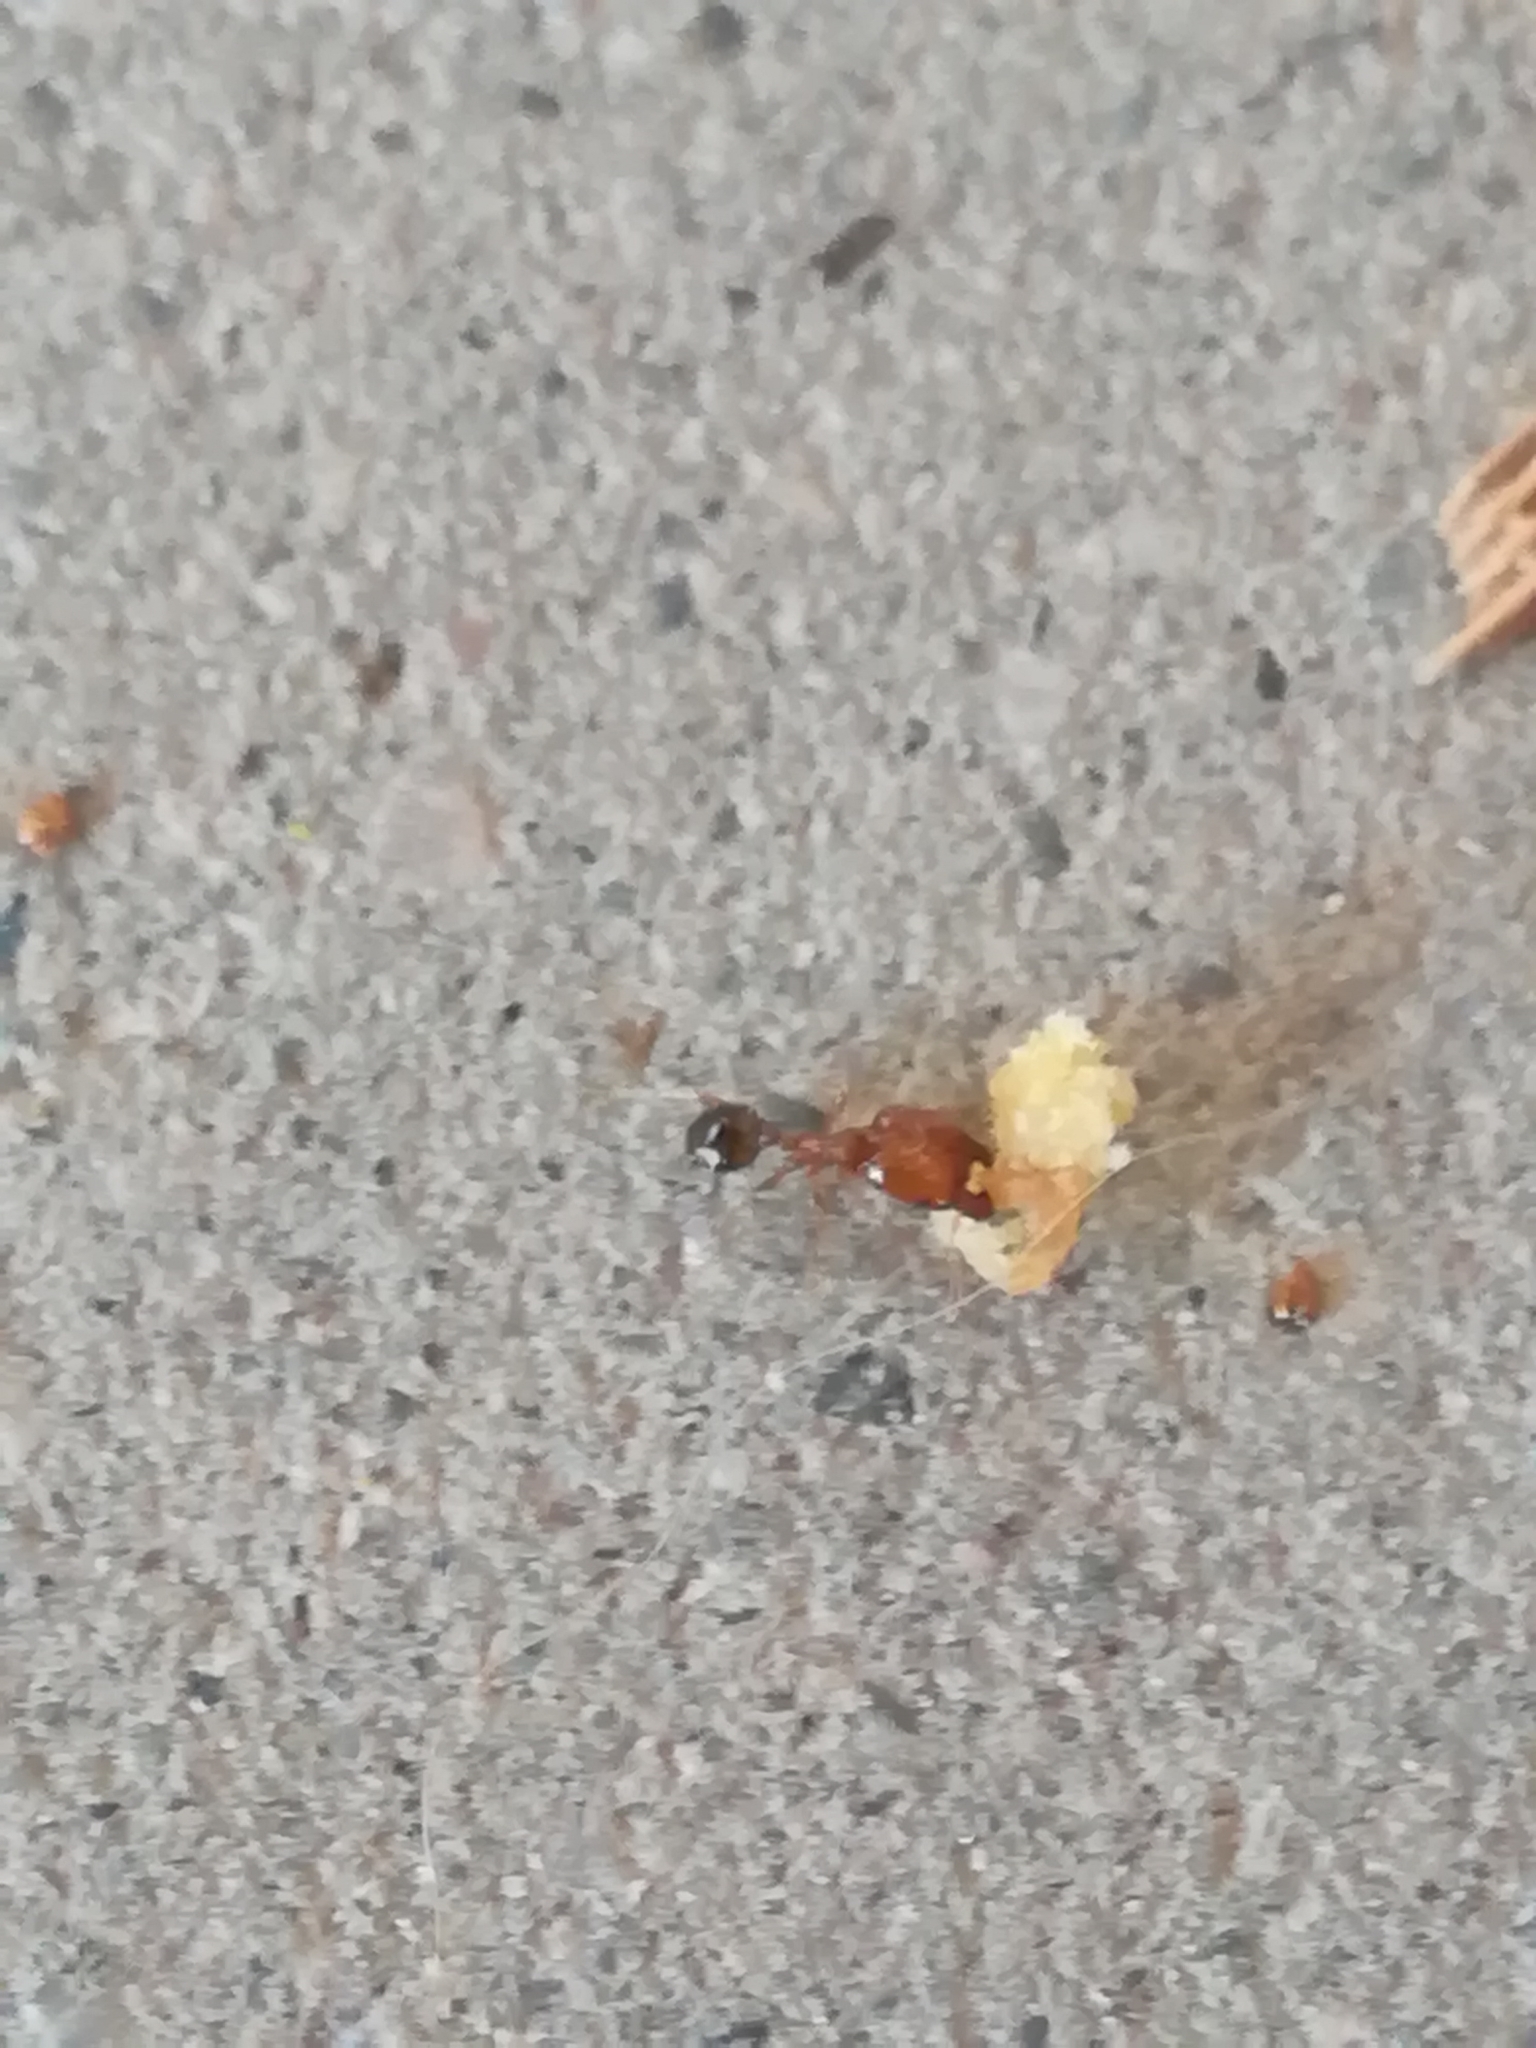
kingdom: Animalia
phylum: Arthropoda
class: Insecta
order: Hymenoptera
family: Formicidae
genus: Pheidole
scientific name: Pheidole pallidula
